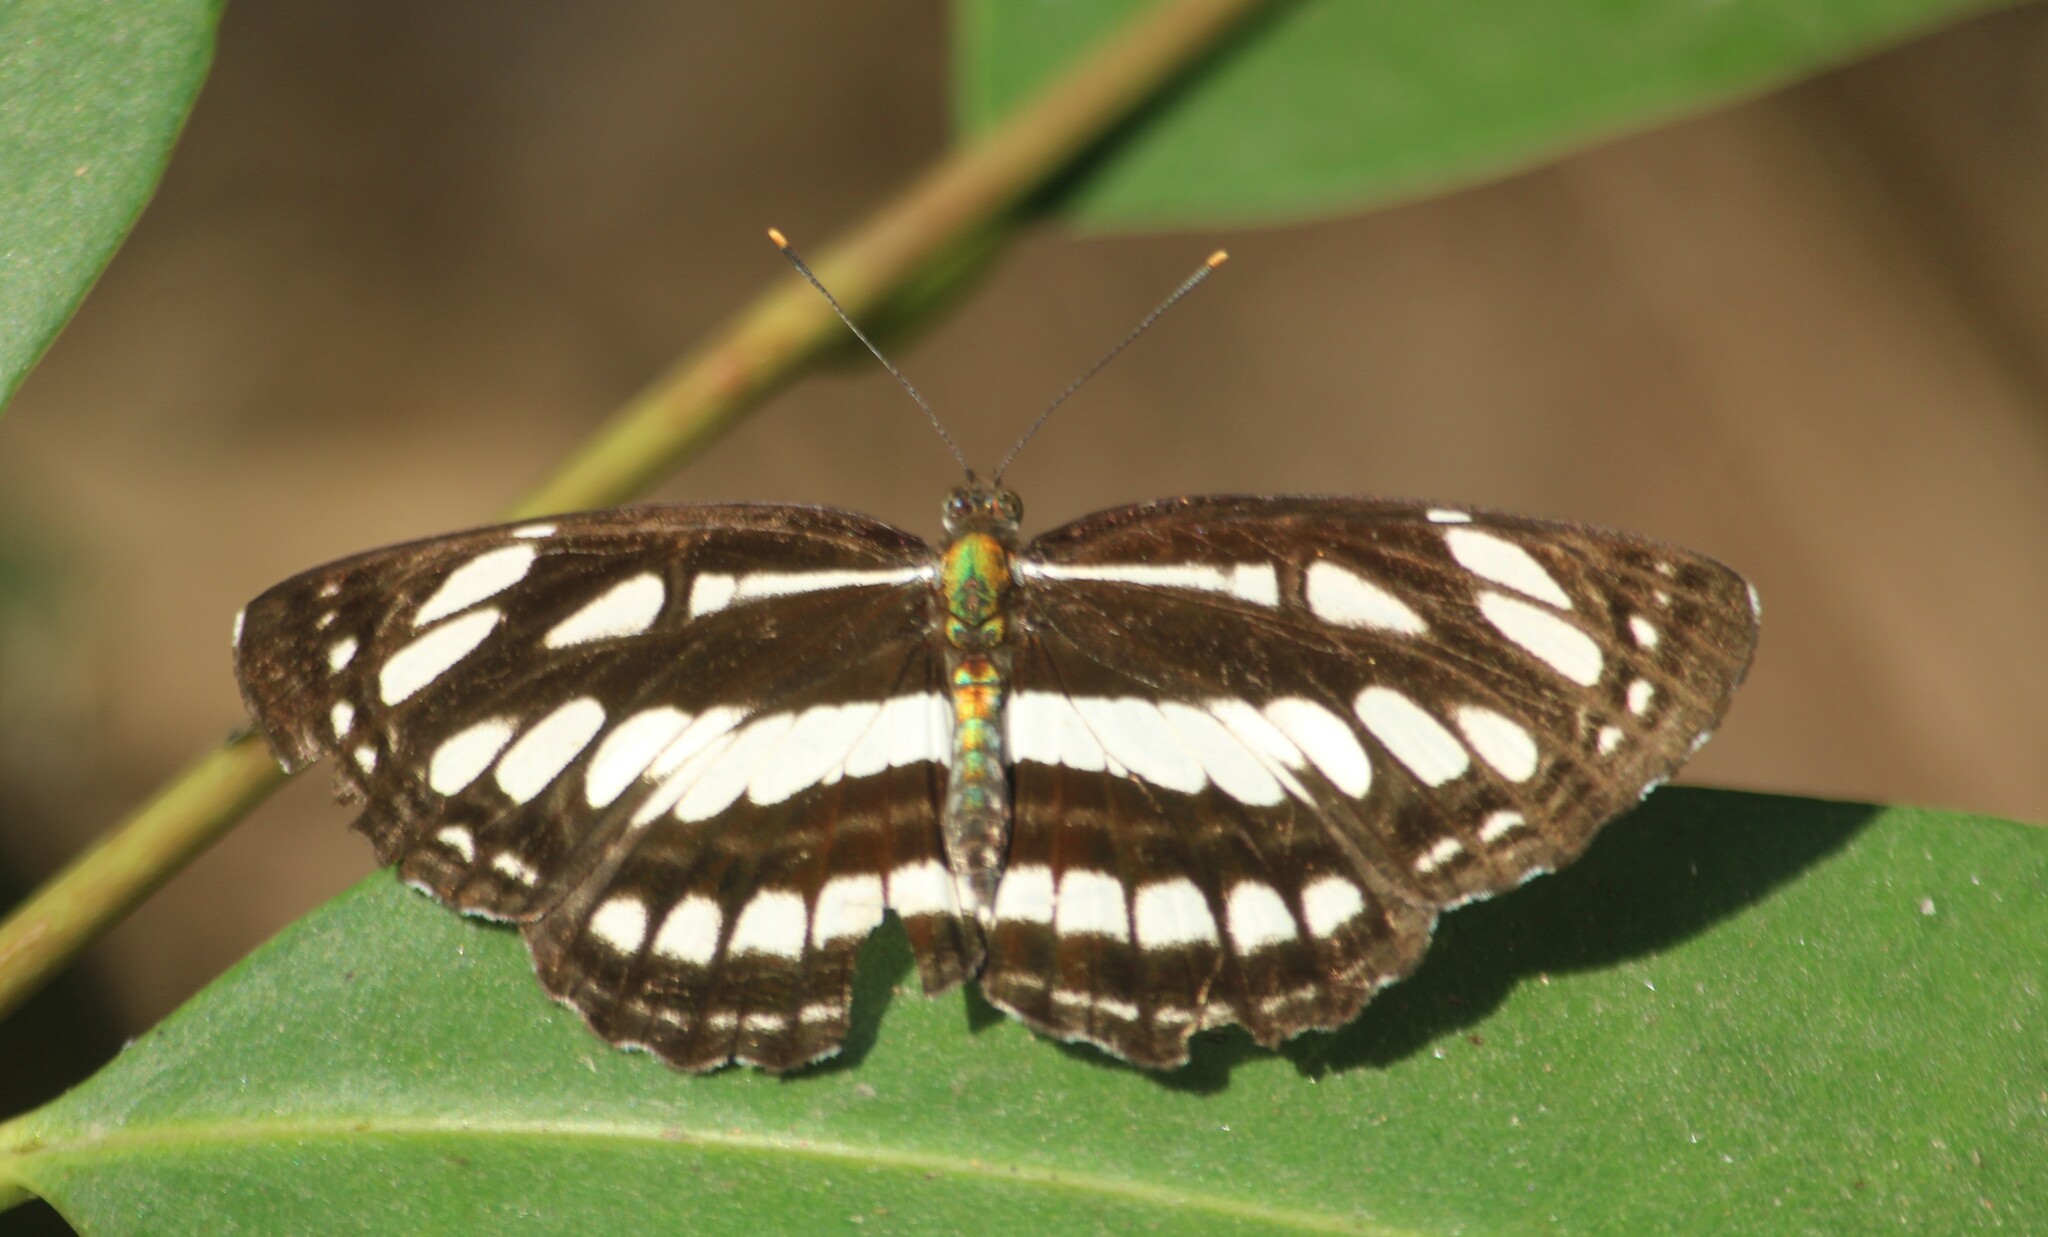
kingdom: Animalia
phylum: Arthropoda
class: Insecta
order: Lepidoptera
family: Nymphalidae
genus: Neptis
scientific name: Neptis hylas
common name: Common sailer
